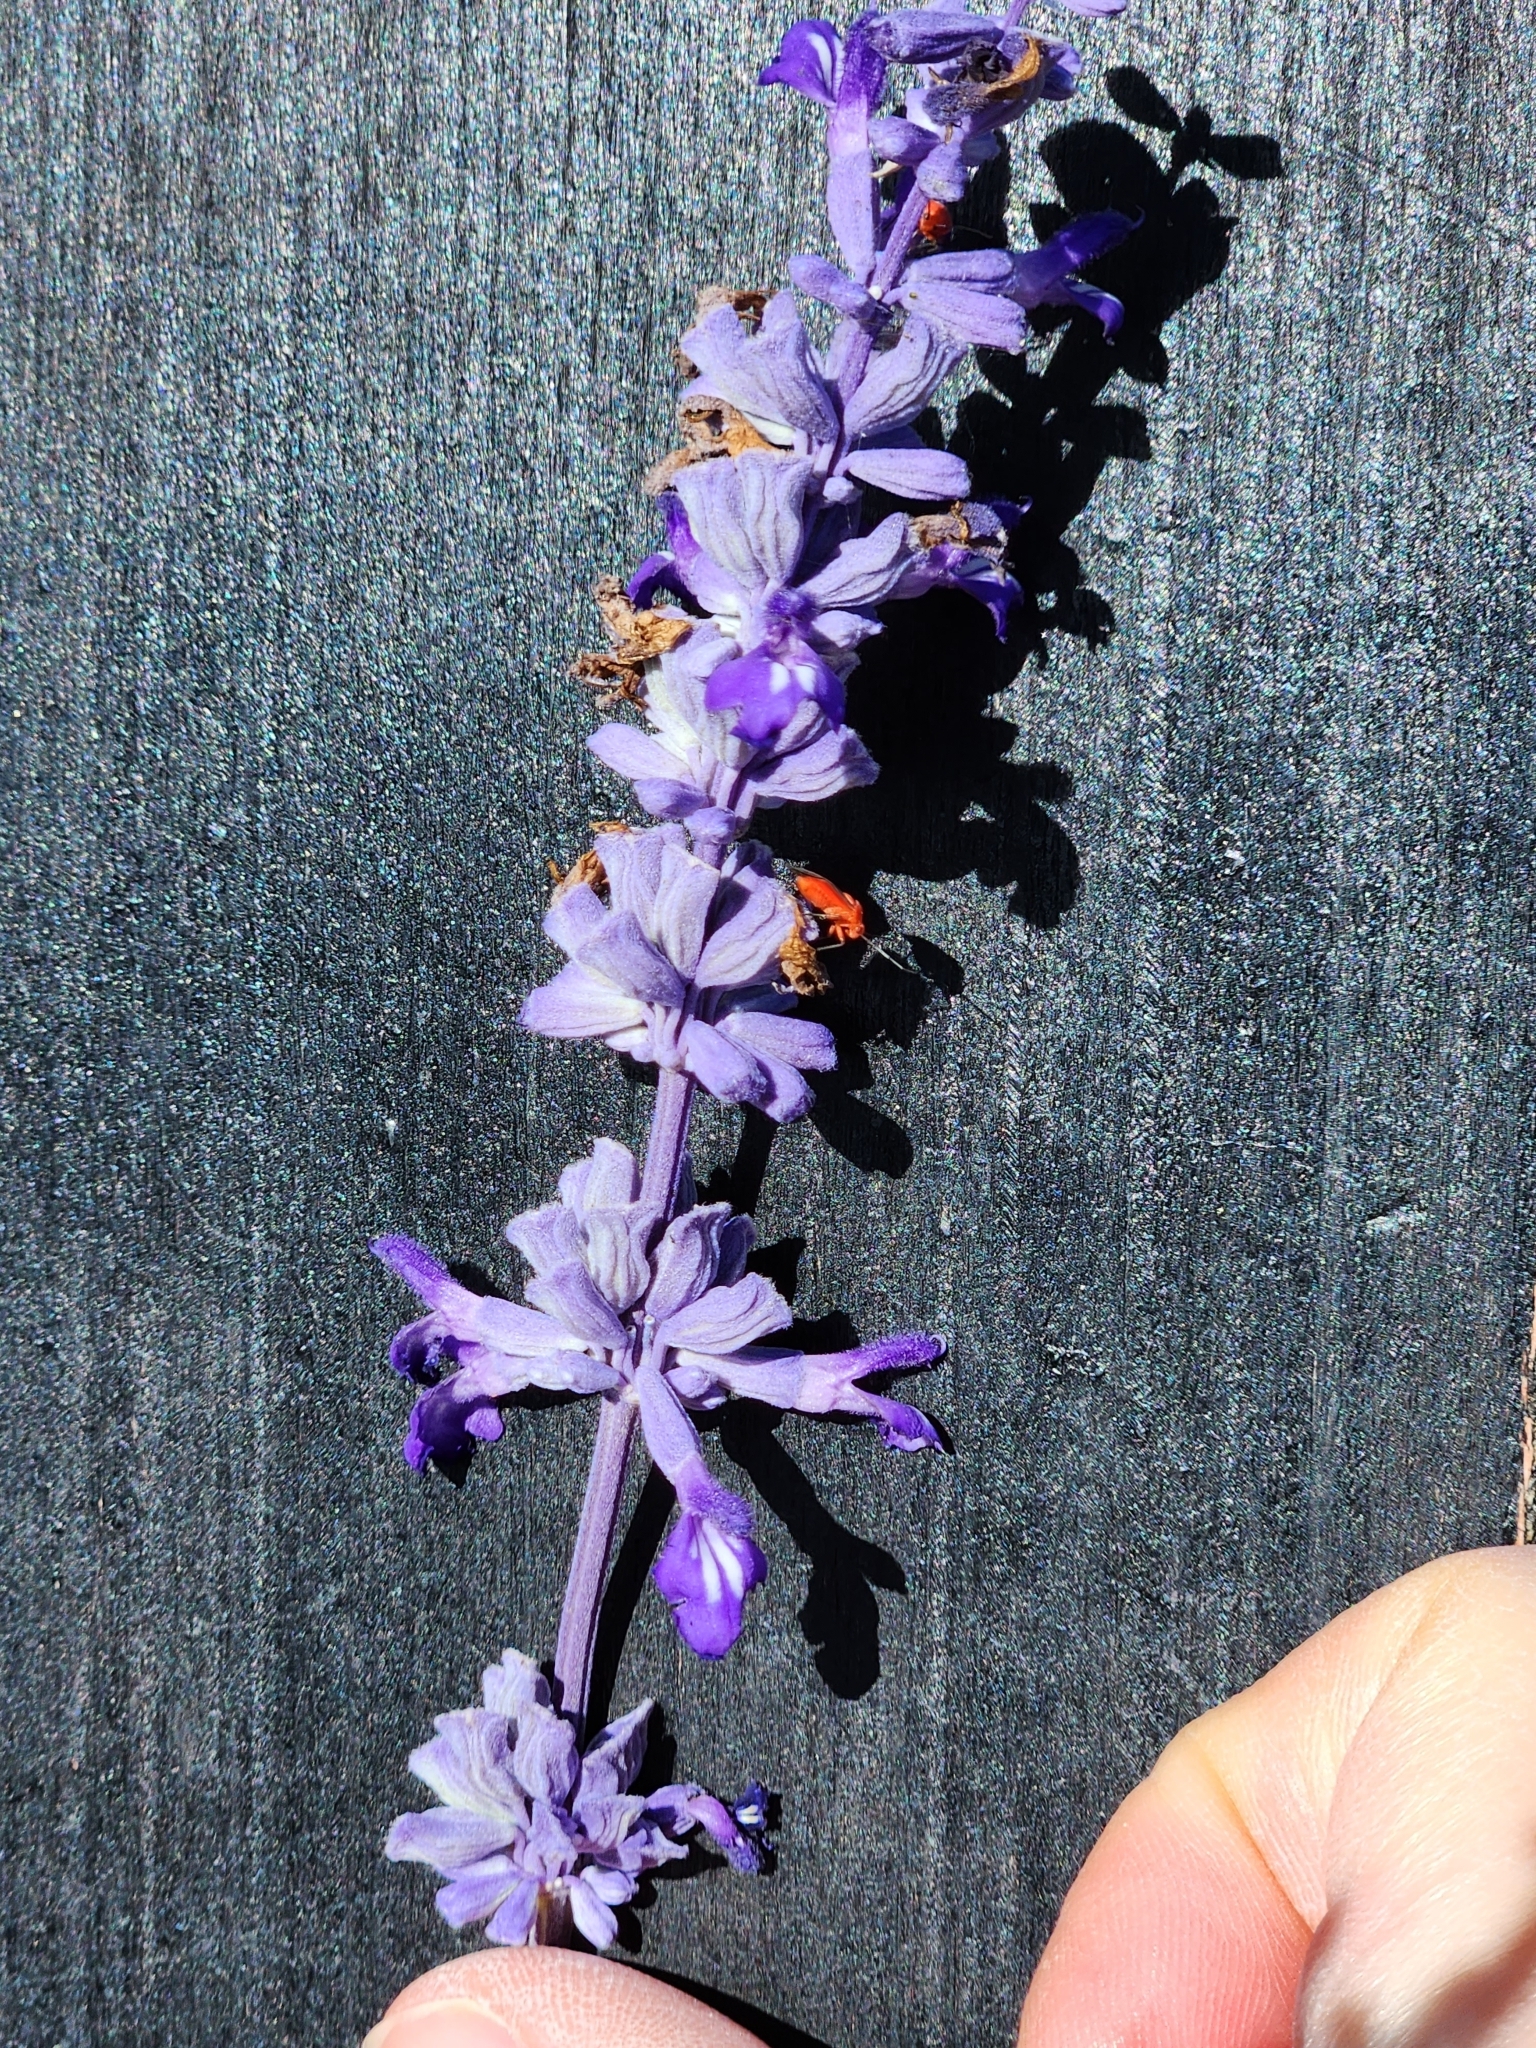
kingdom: Plantae
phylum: Tracheophyta
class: Magnoliopsida
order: Lamiales
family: Lamiaceae
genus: Salvia
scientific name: Salvia farinacea
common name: Mealy sage
